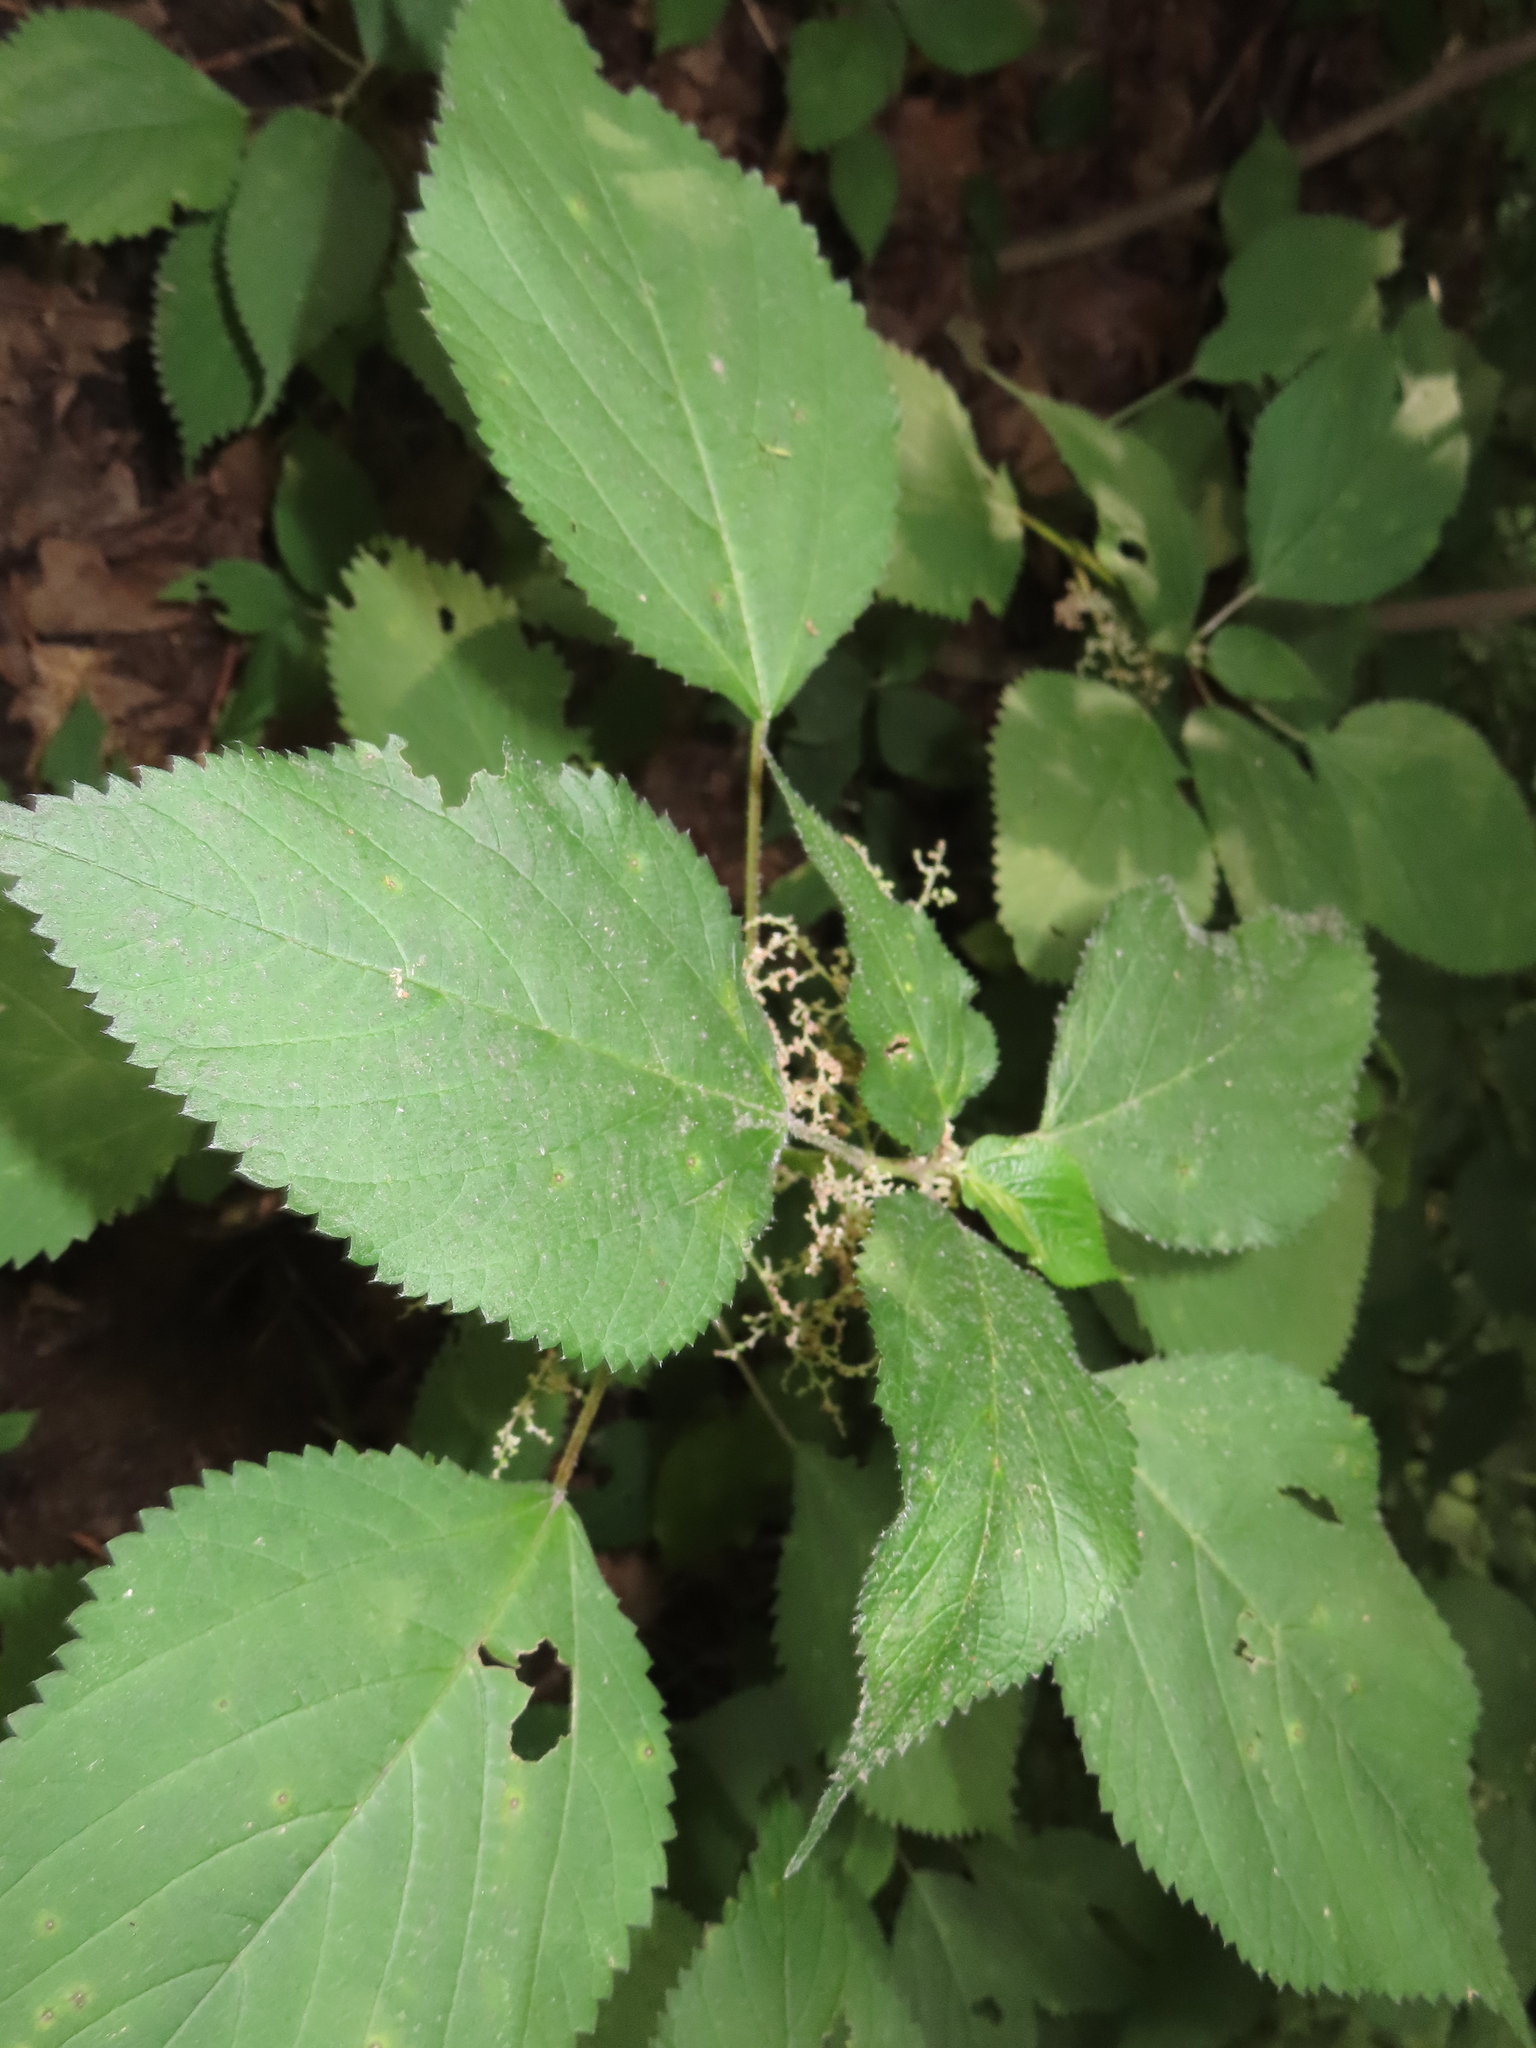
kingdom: Plantae
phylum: Tracheophyta
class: Magnoliopsida
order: Rosales
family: Urticaceae
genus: Laportea
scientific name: Laportea canadensis
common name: Canada nettle
